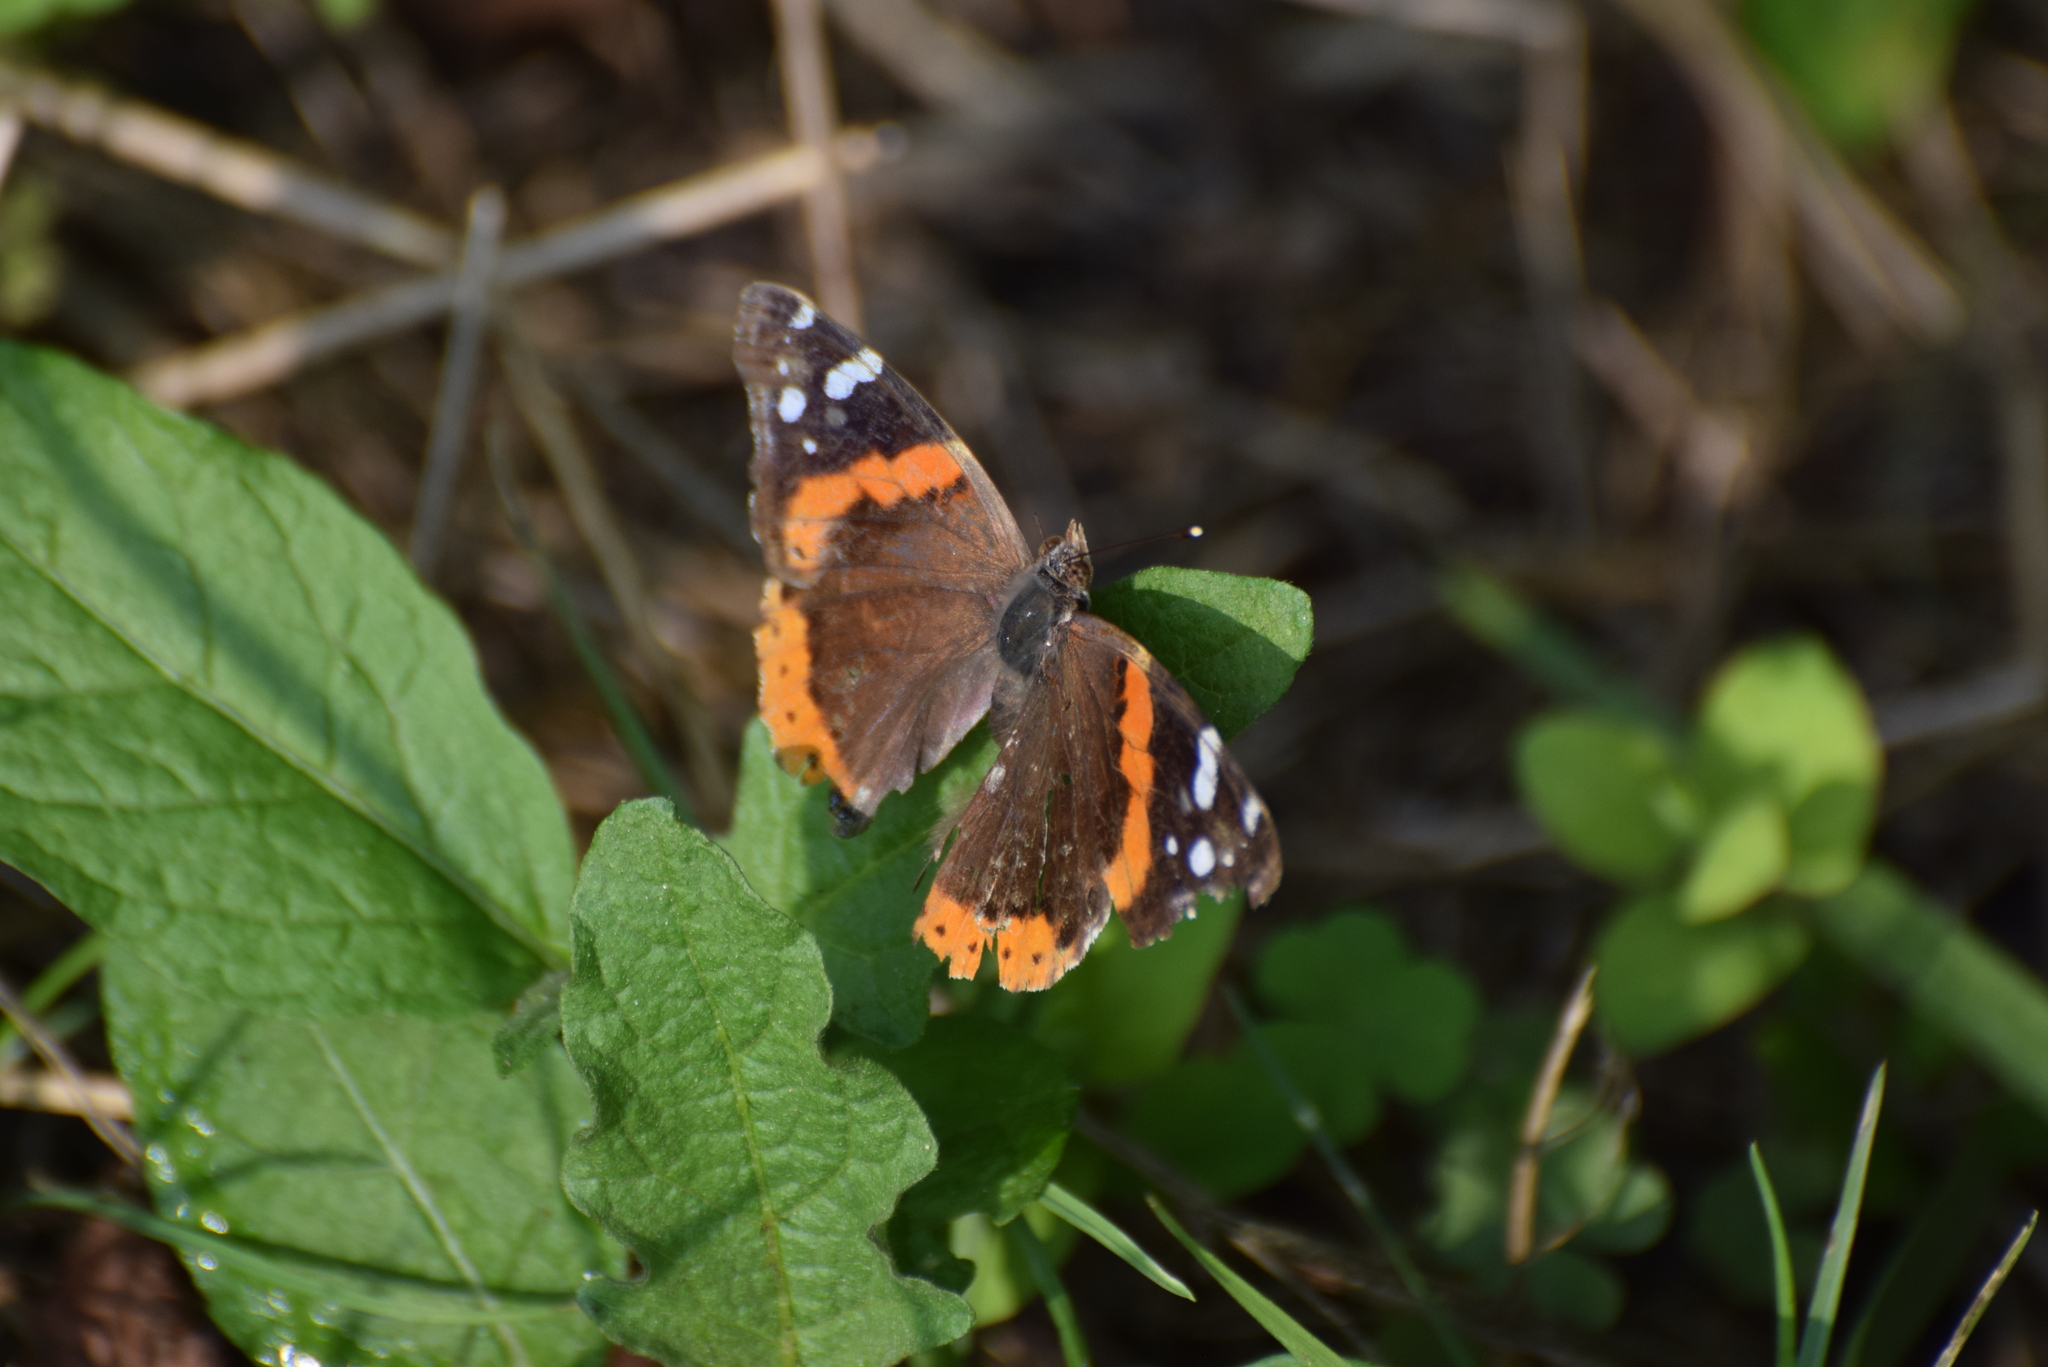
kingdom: Animalia
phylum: Arthropoda
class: Insecta
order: Lepidoptera
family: Nymphalidae
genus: Vanessa
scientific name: Vanessa atalanta
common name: Red admiral
